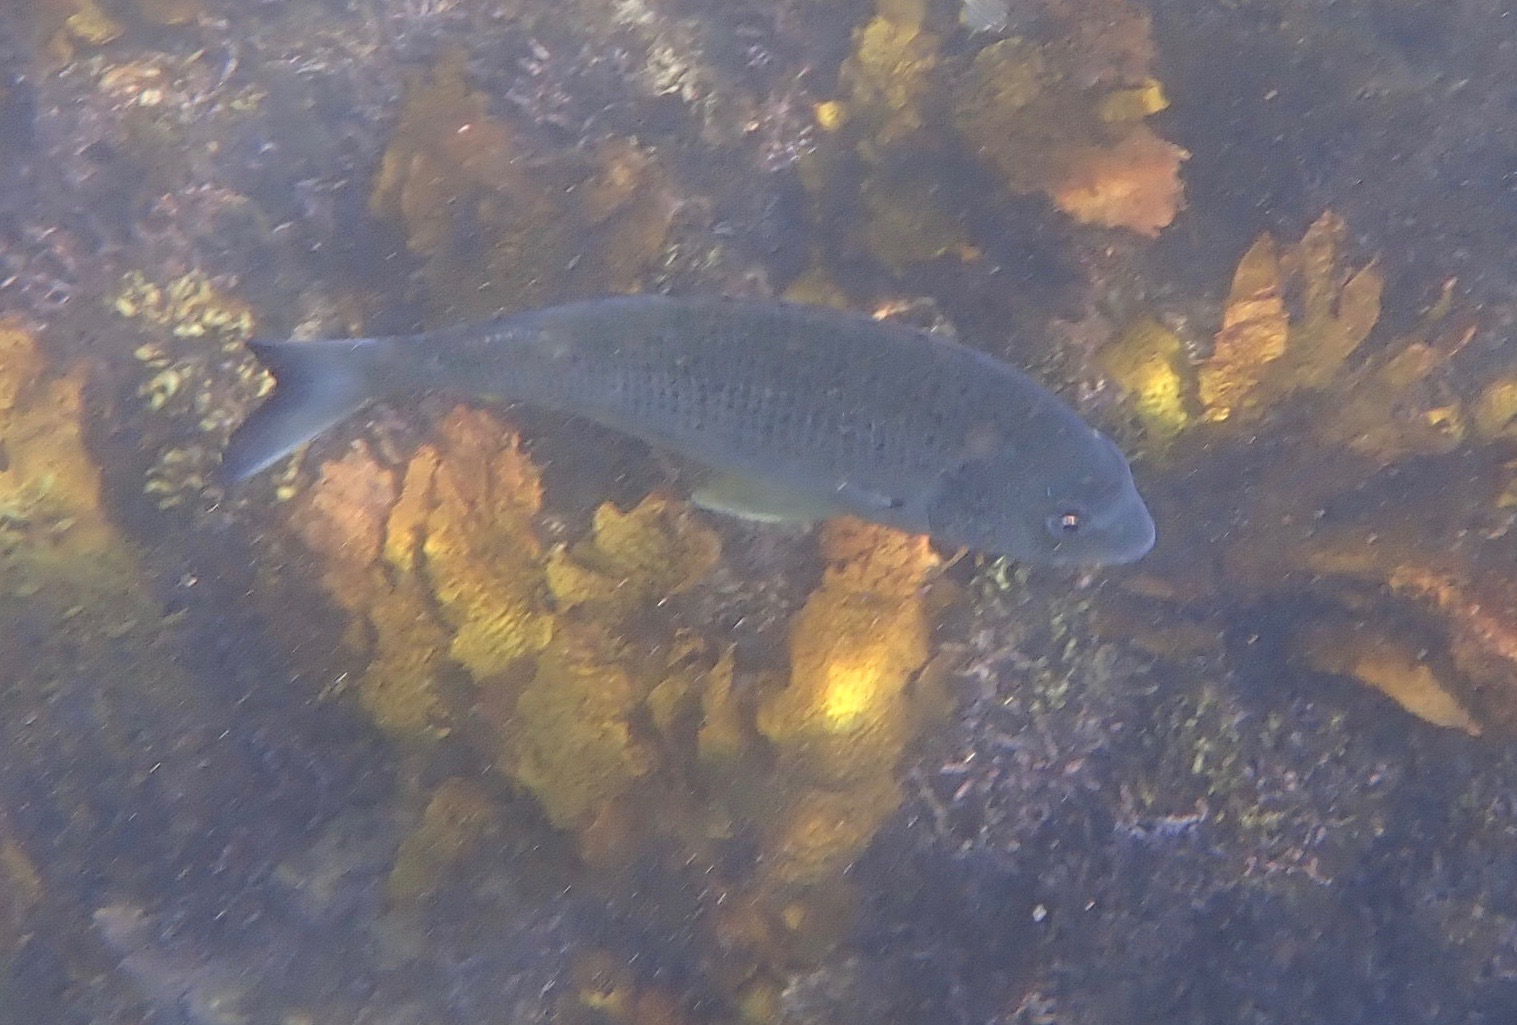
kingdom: Animalia
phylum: Chordata
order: Perciformes
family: Sparidae
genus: Acanthopagrus
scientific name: Acanthopagrus australis
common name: Surf bream
